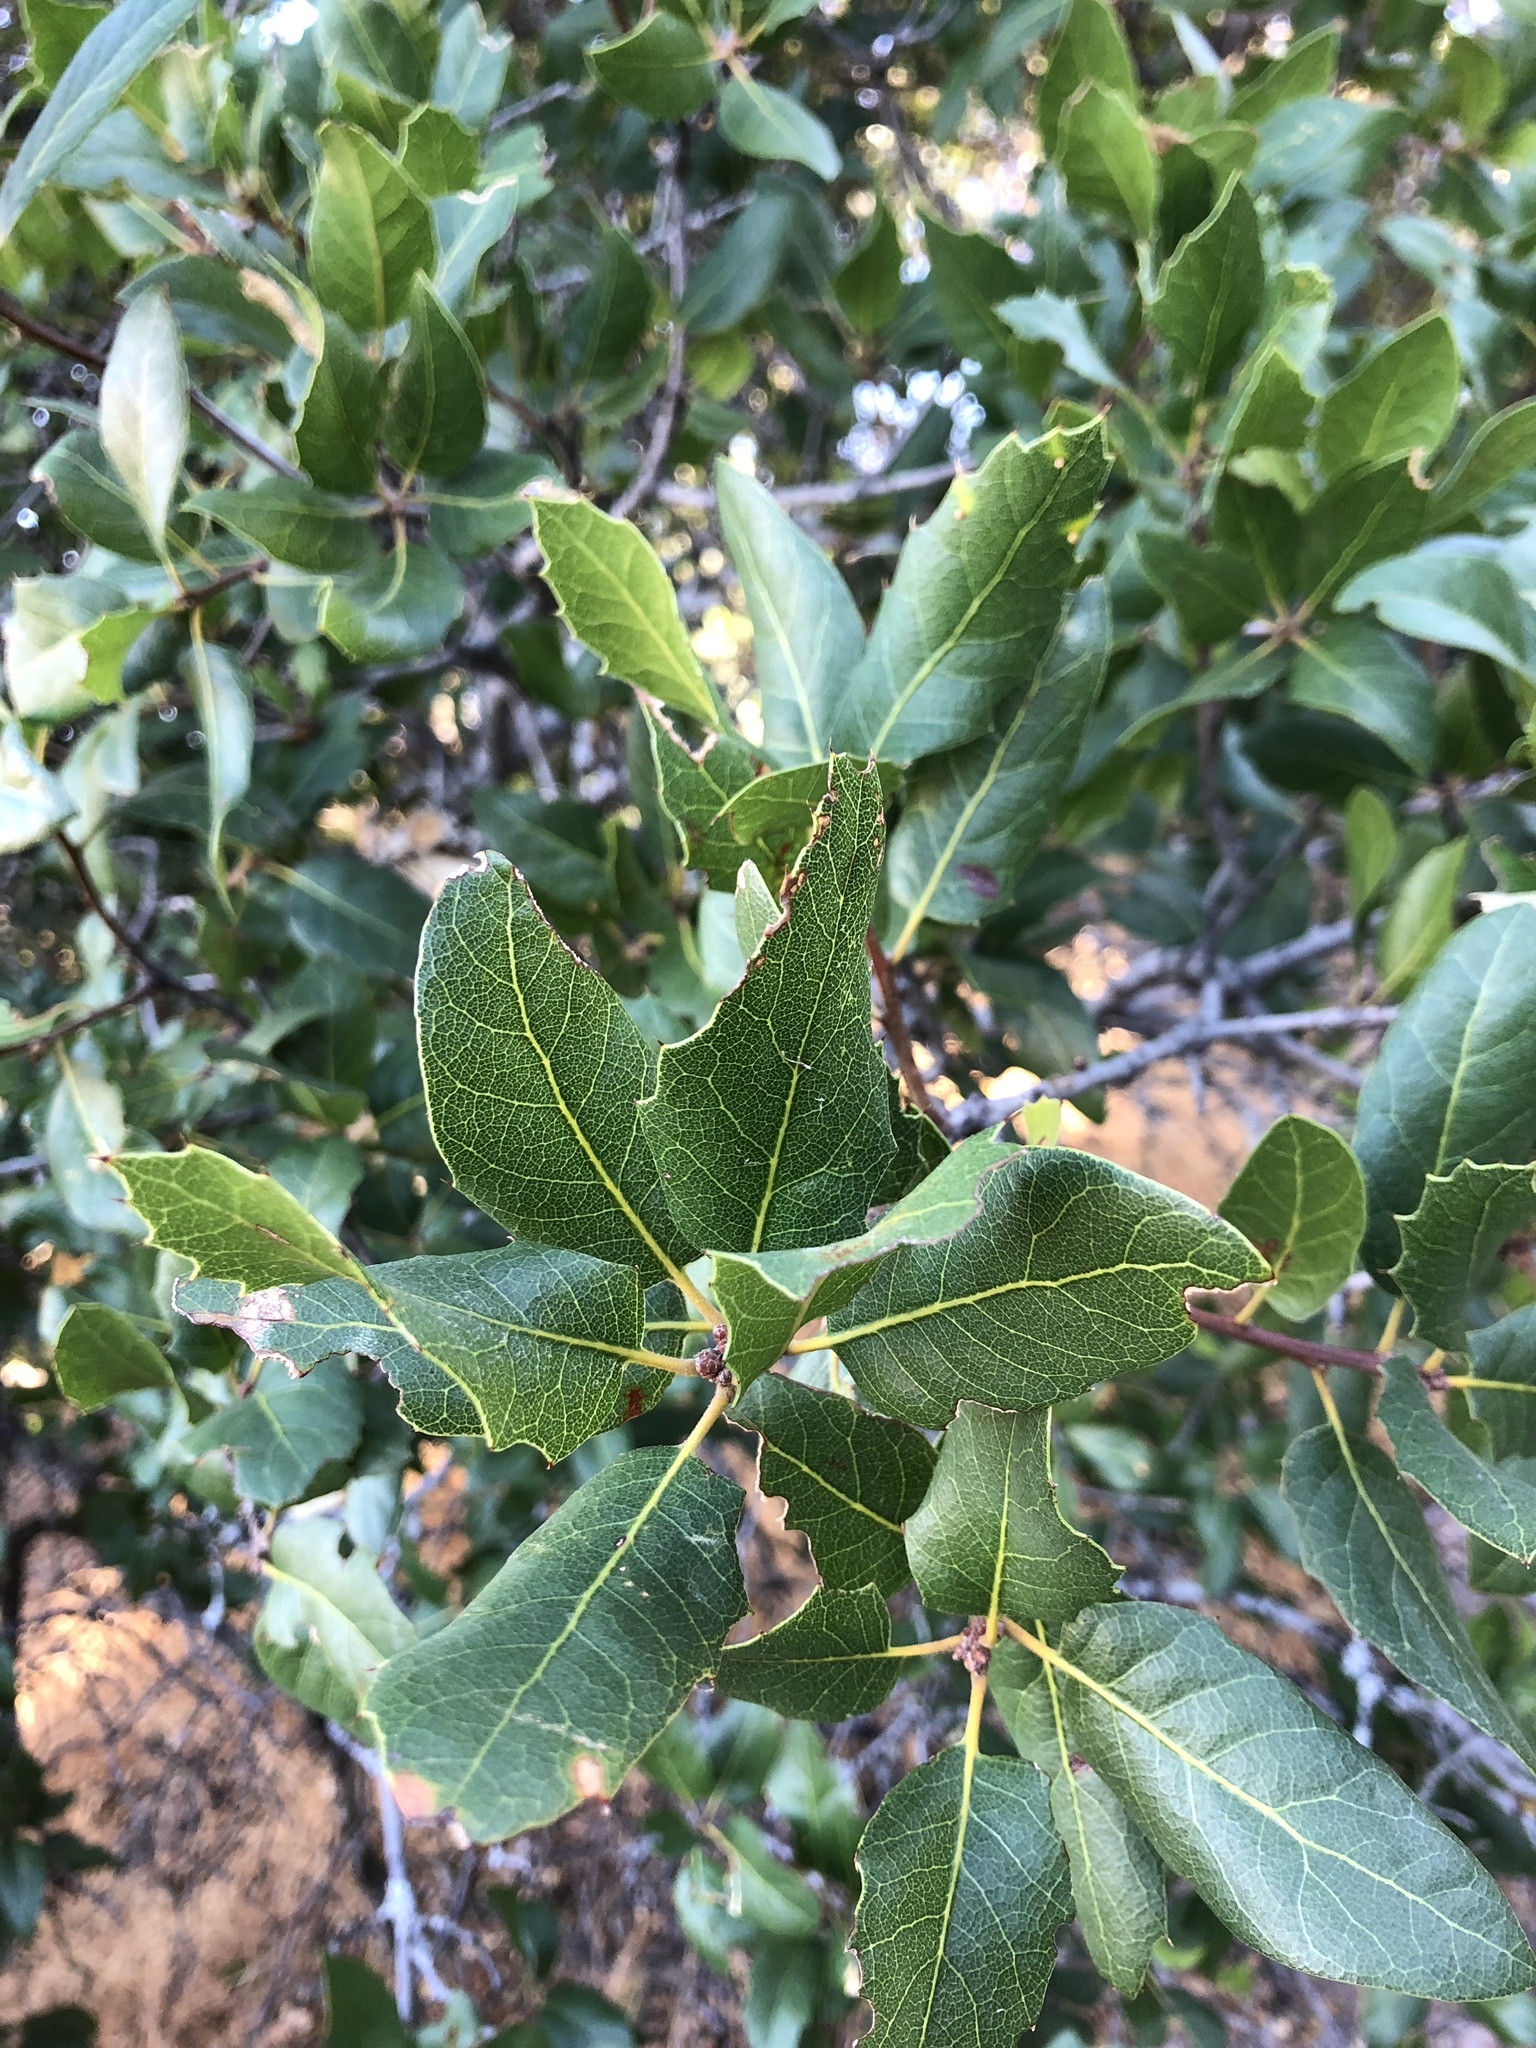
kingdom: Plantae
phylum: Tracheophyta
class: Magnoliopsida
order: Fagales
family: Fagaceae
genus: Quercus
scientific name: Quercus wislizeni
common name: Interior live oak
